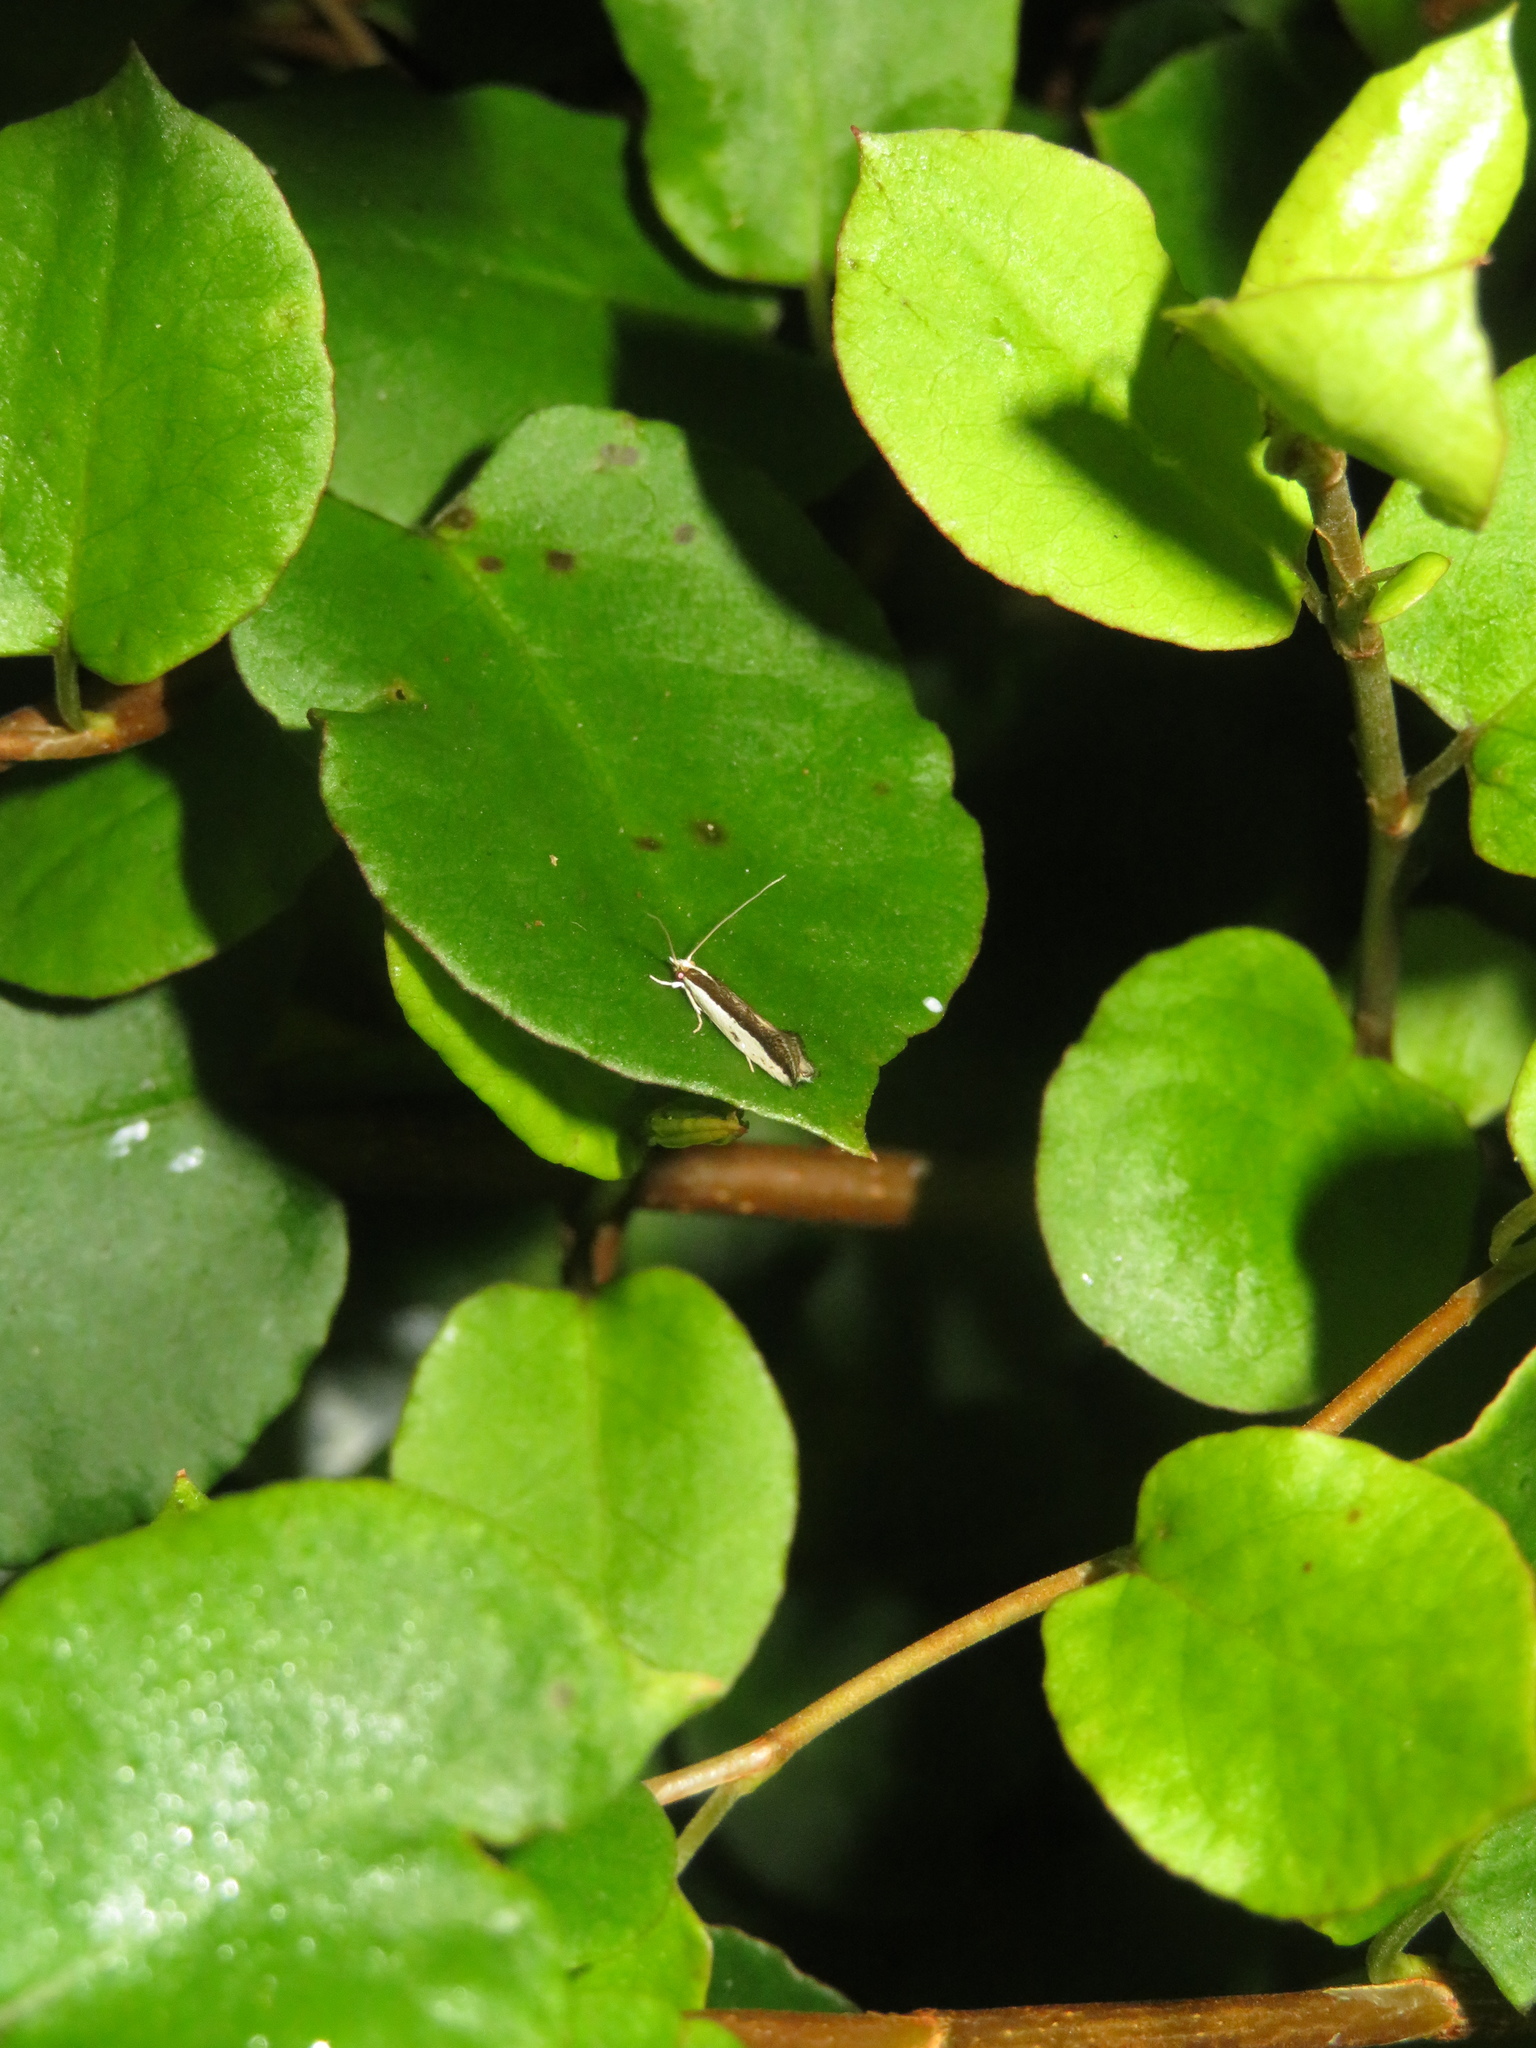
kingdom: Animalia
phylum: Arthropoda
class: Insecta
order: Lepidoptera
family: Tineidae
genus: Erechthias
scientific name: Erechthias chionodira
